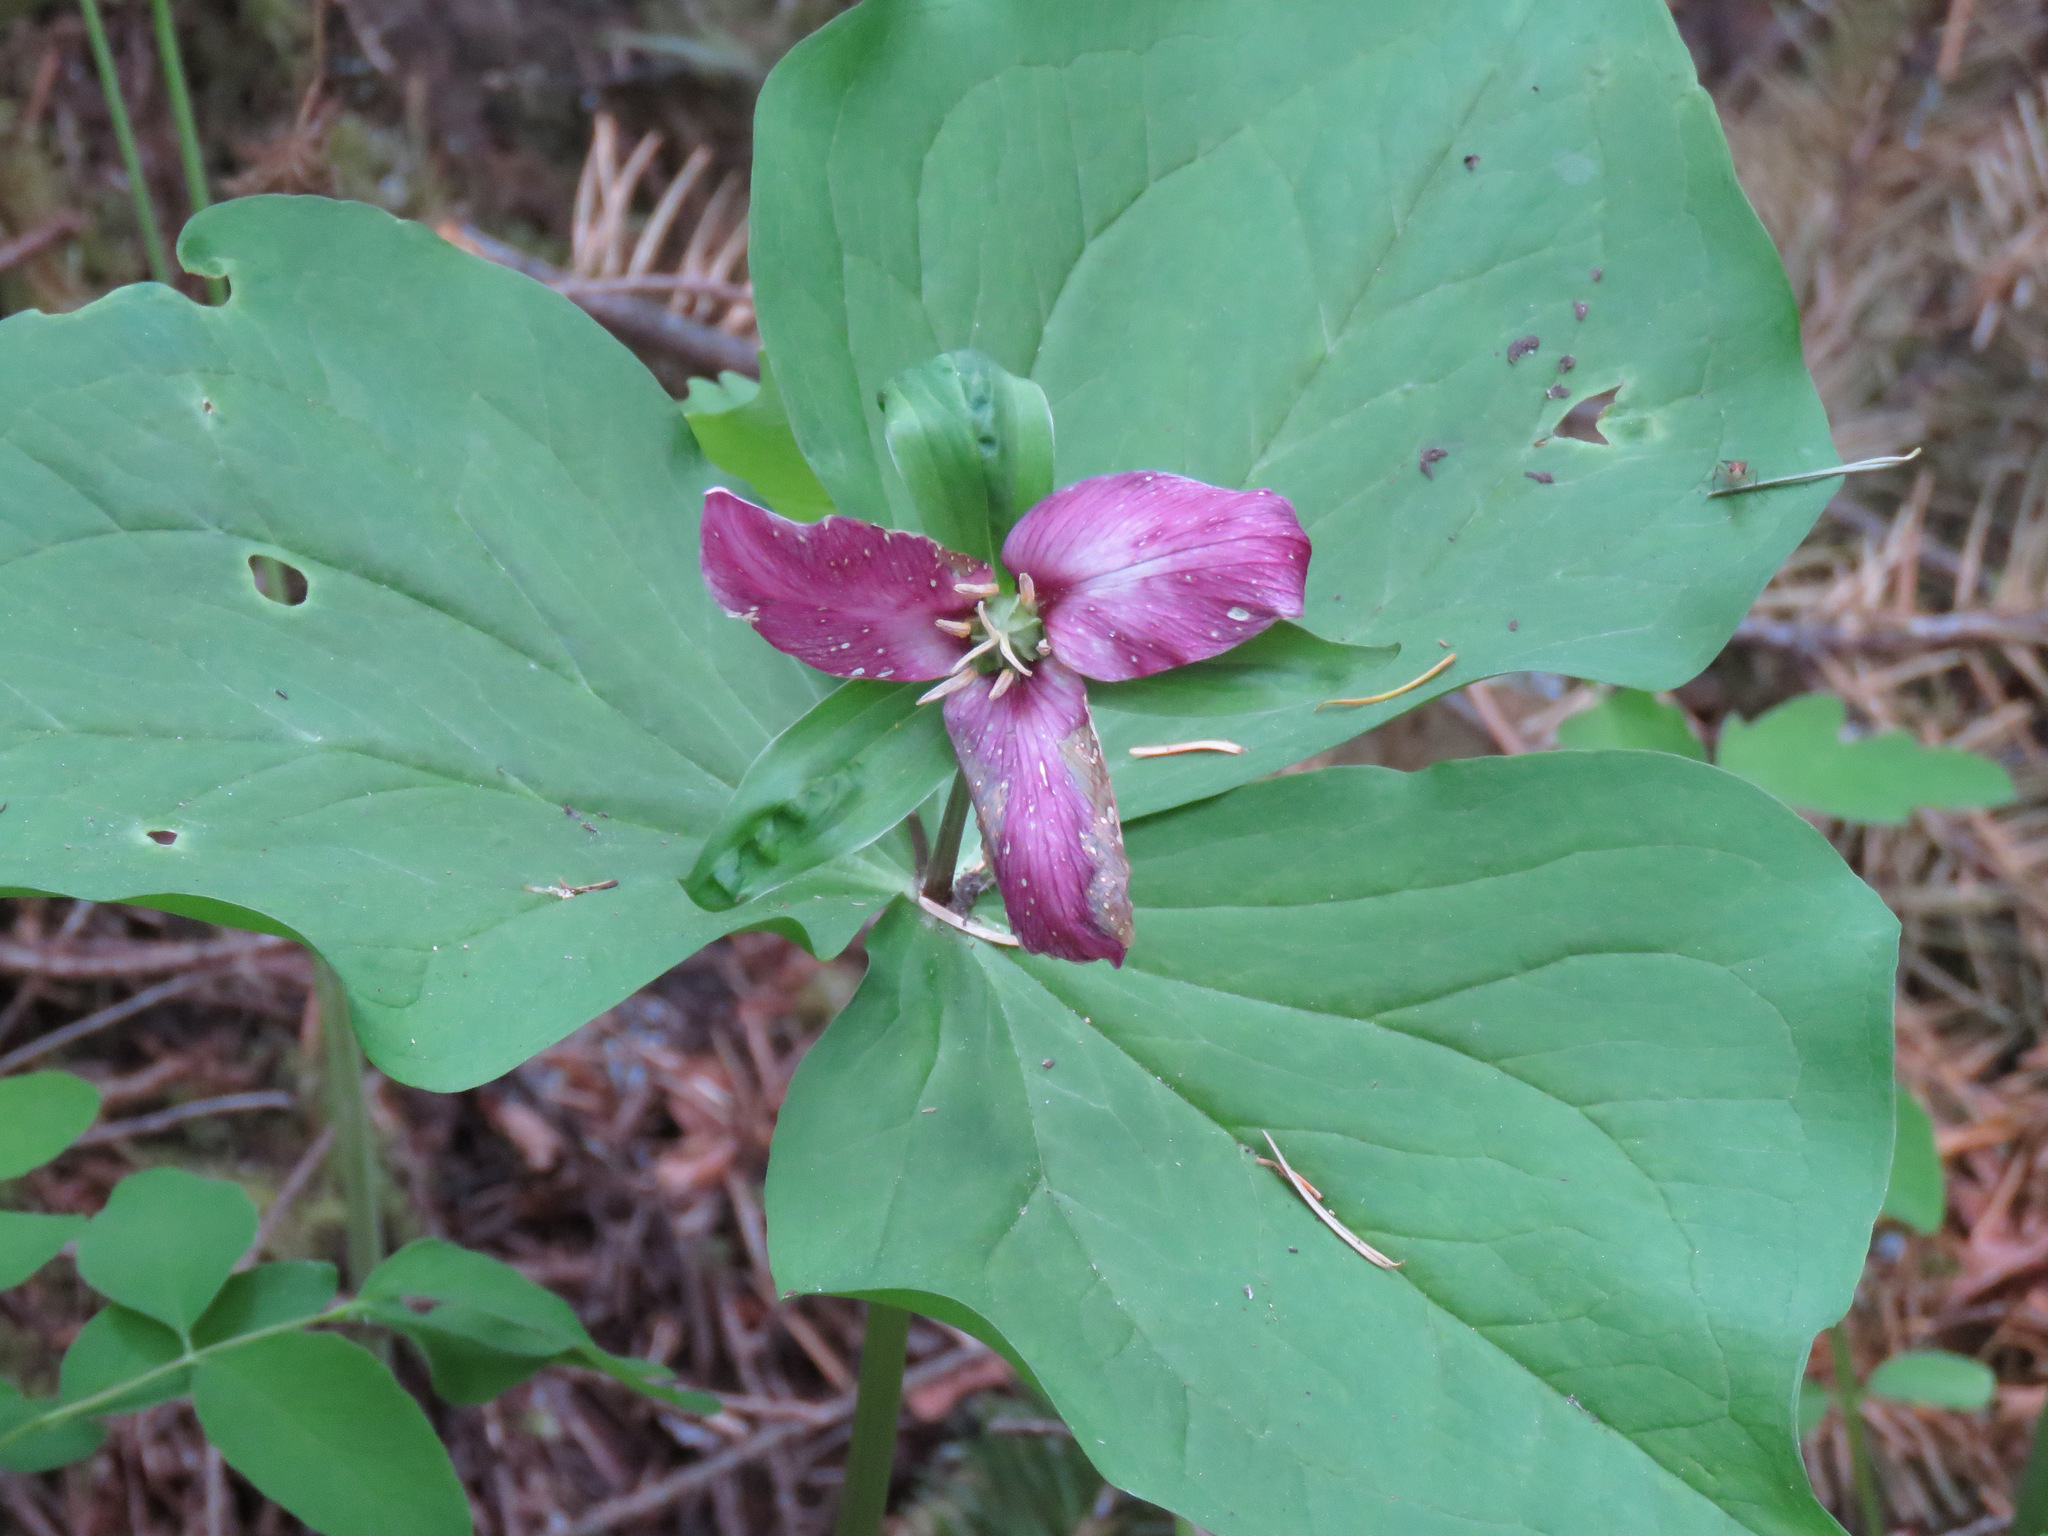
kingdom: Plantae
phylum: Tracheophyta
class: Liliopsida
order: Liliales
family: Melanthiaceae
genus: Trillium
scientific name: Trillium ovatum
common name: Pacific trillium
